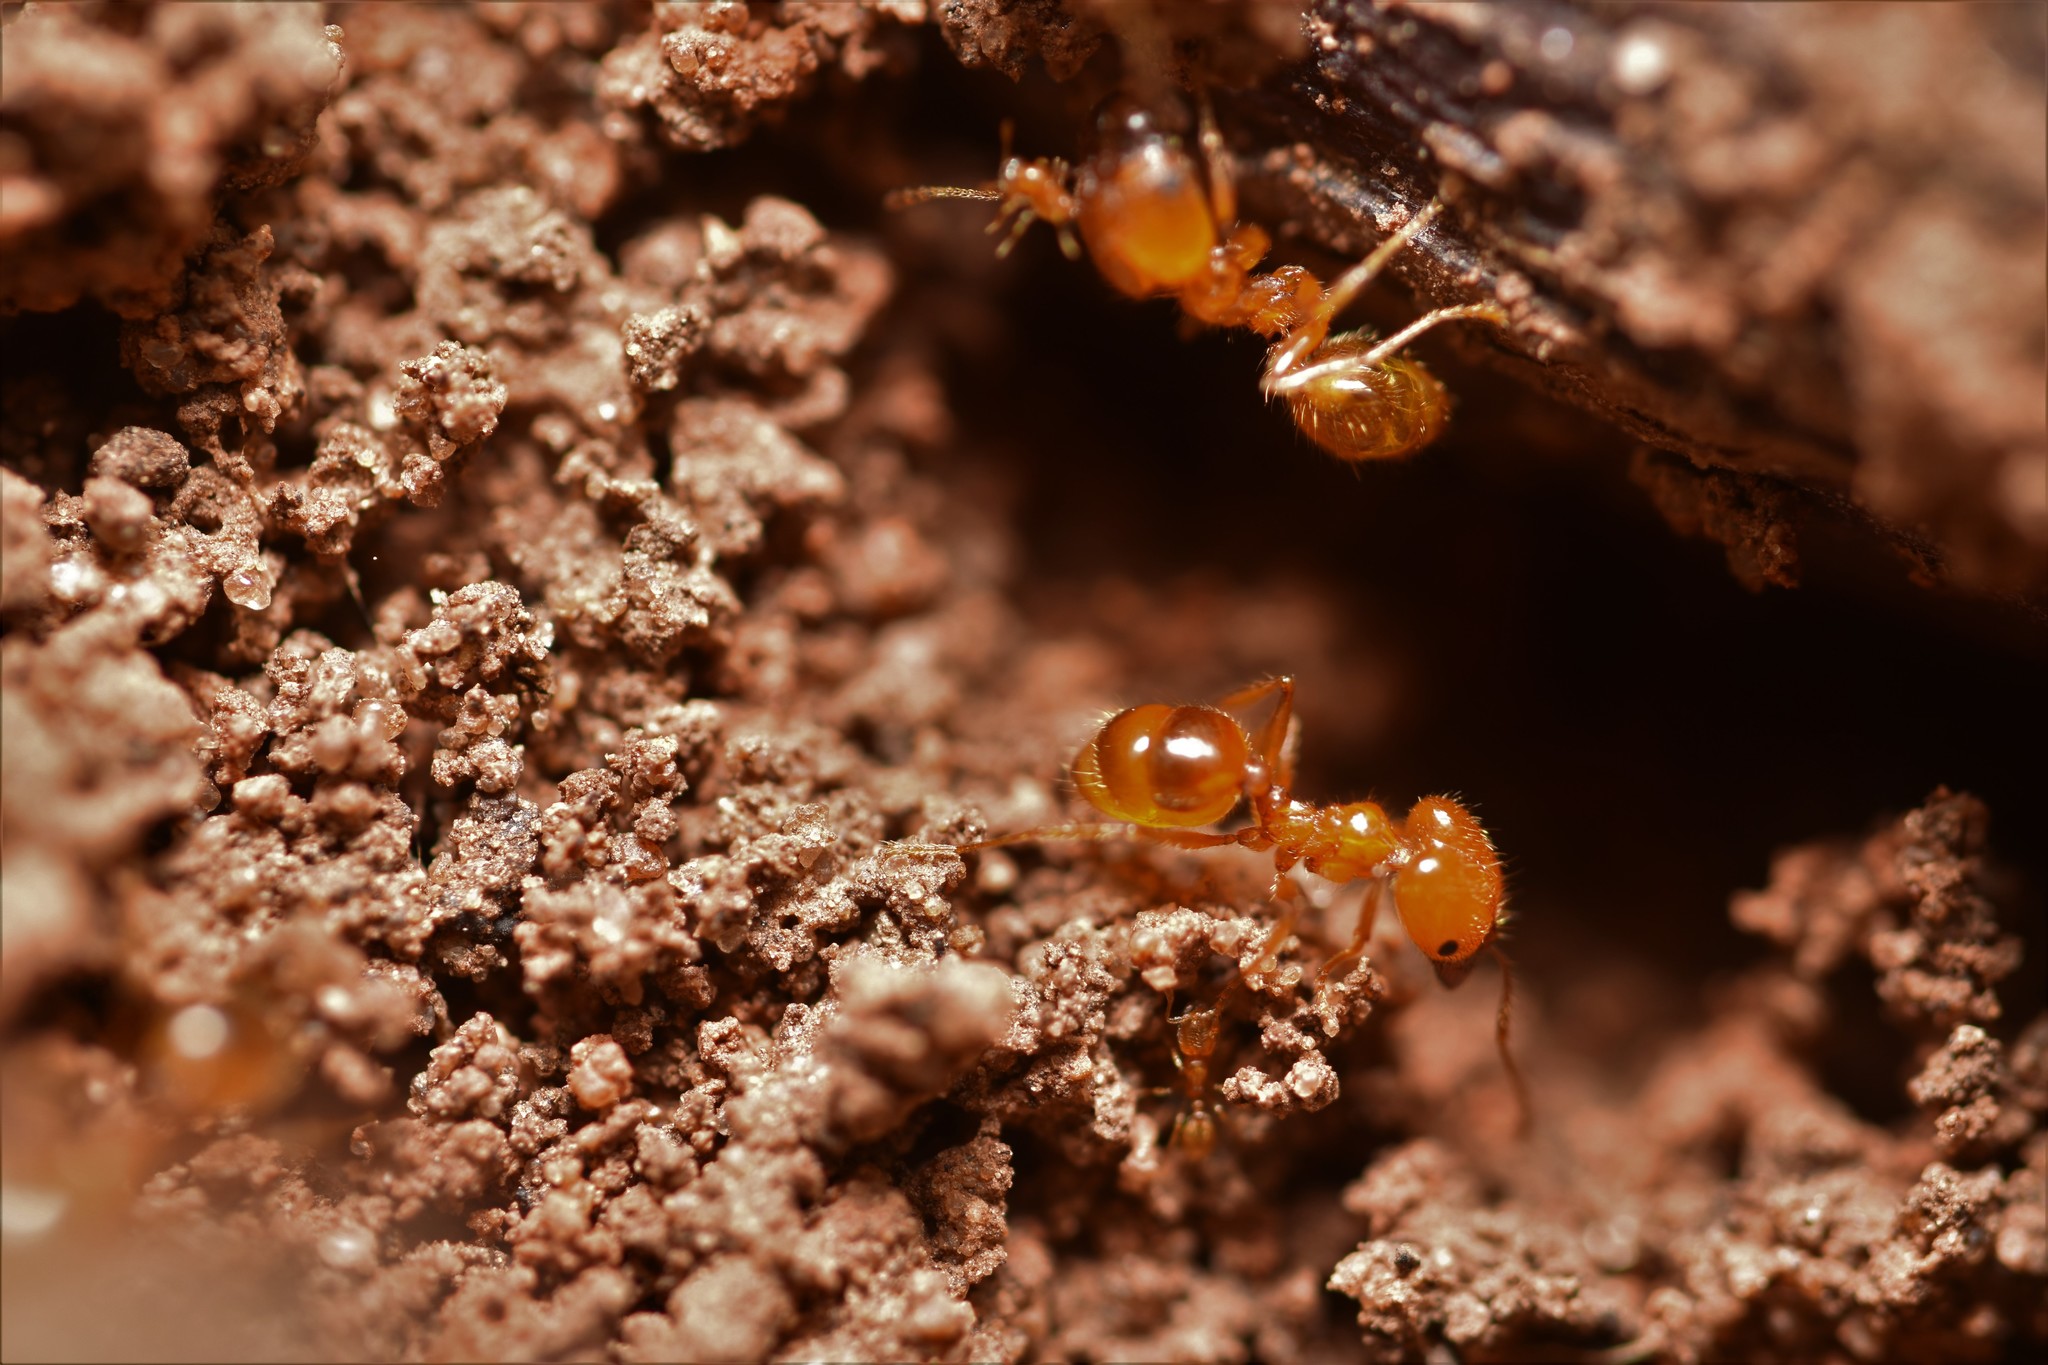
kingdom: Animalia
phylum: Arthropoda
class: Insecta
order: Hymenoptera
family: Formicidae
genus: Pheidole
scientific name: Pheidole dentata
